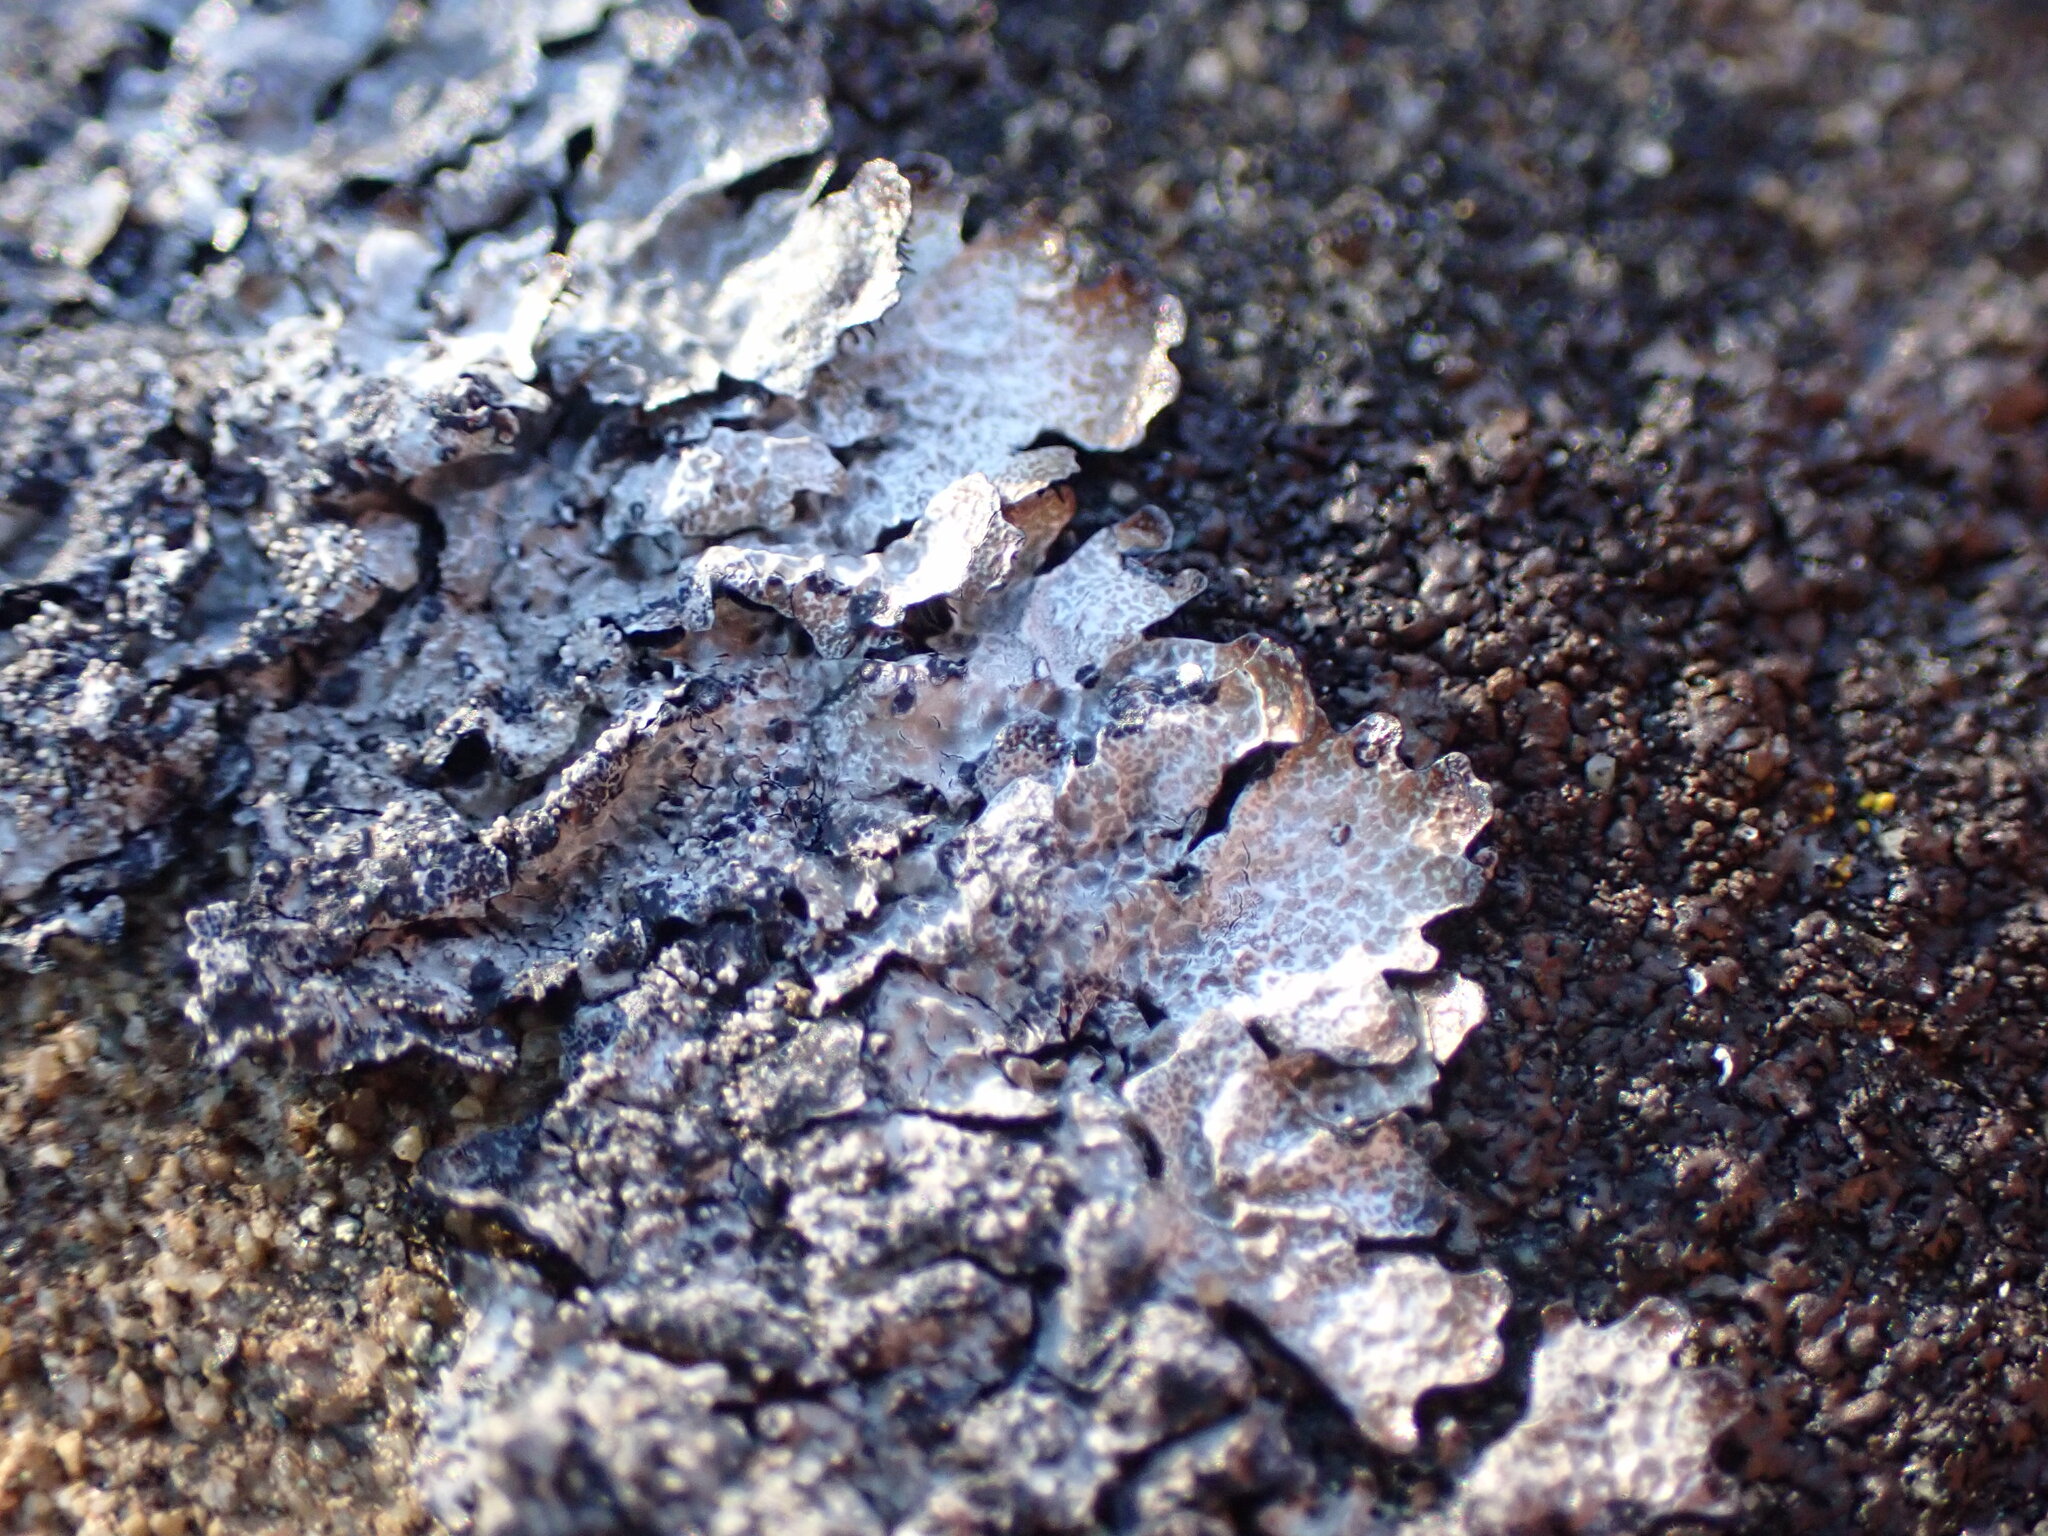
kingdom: Fungi
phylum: Ascomycota
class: Lecanoromycetes
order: Lecanorales
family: Parmeliaceae
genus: Parmelia
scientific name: Parmelia saxatilis
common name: Salted shield lichen
